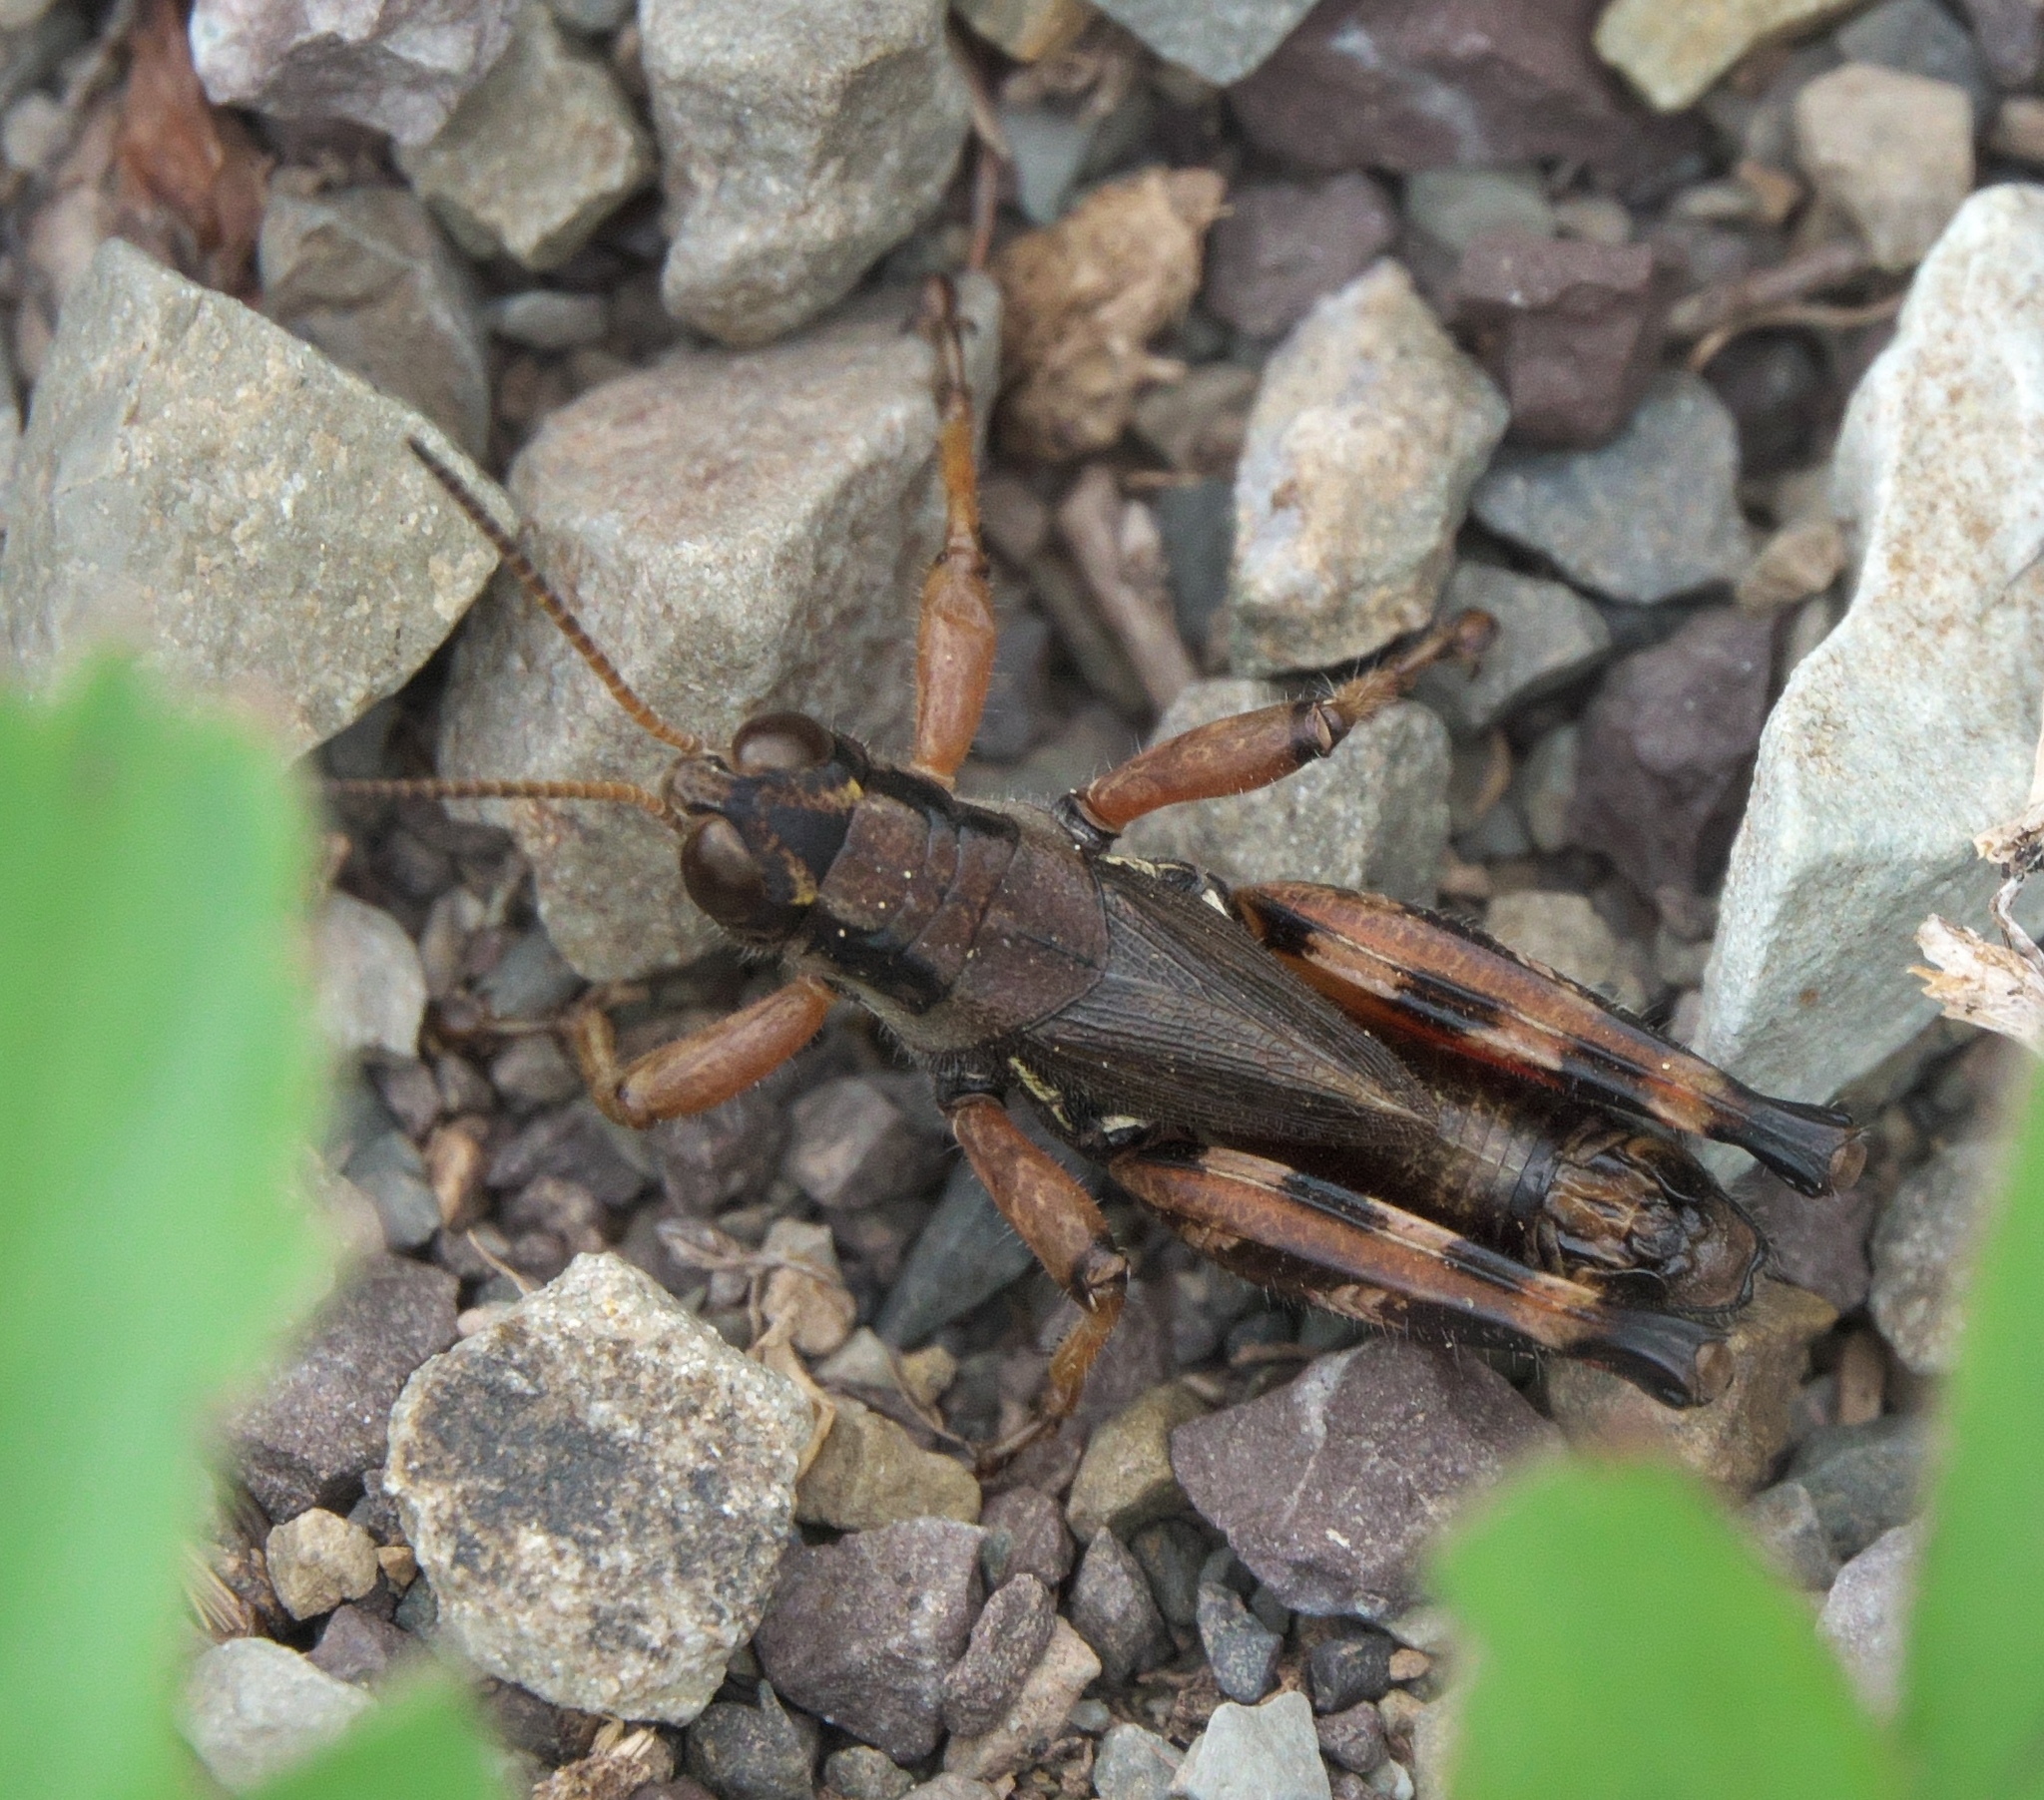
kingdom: Animalia
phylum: Arthropoda
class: Insecta
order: Orthoptera
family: Acrididae
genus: Melanoplus
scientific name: Melanoplus stupefactus
